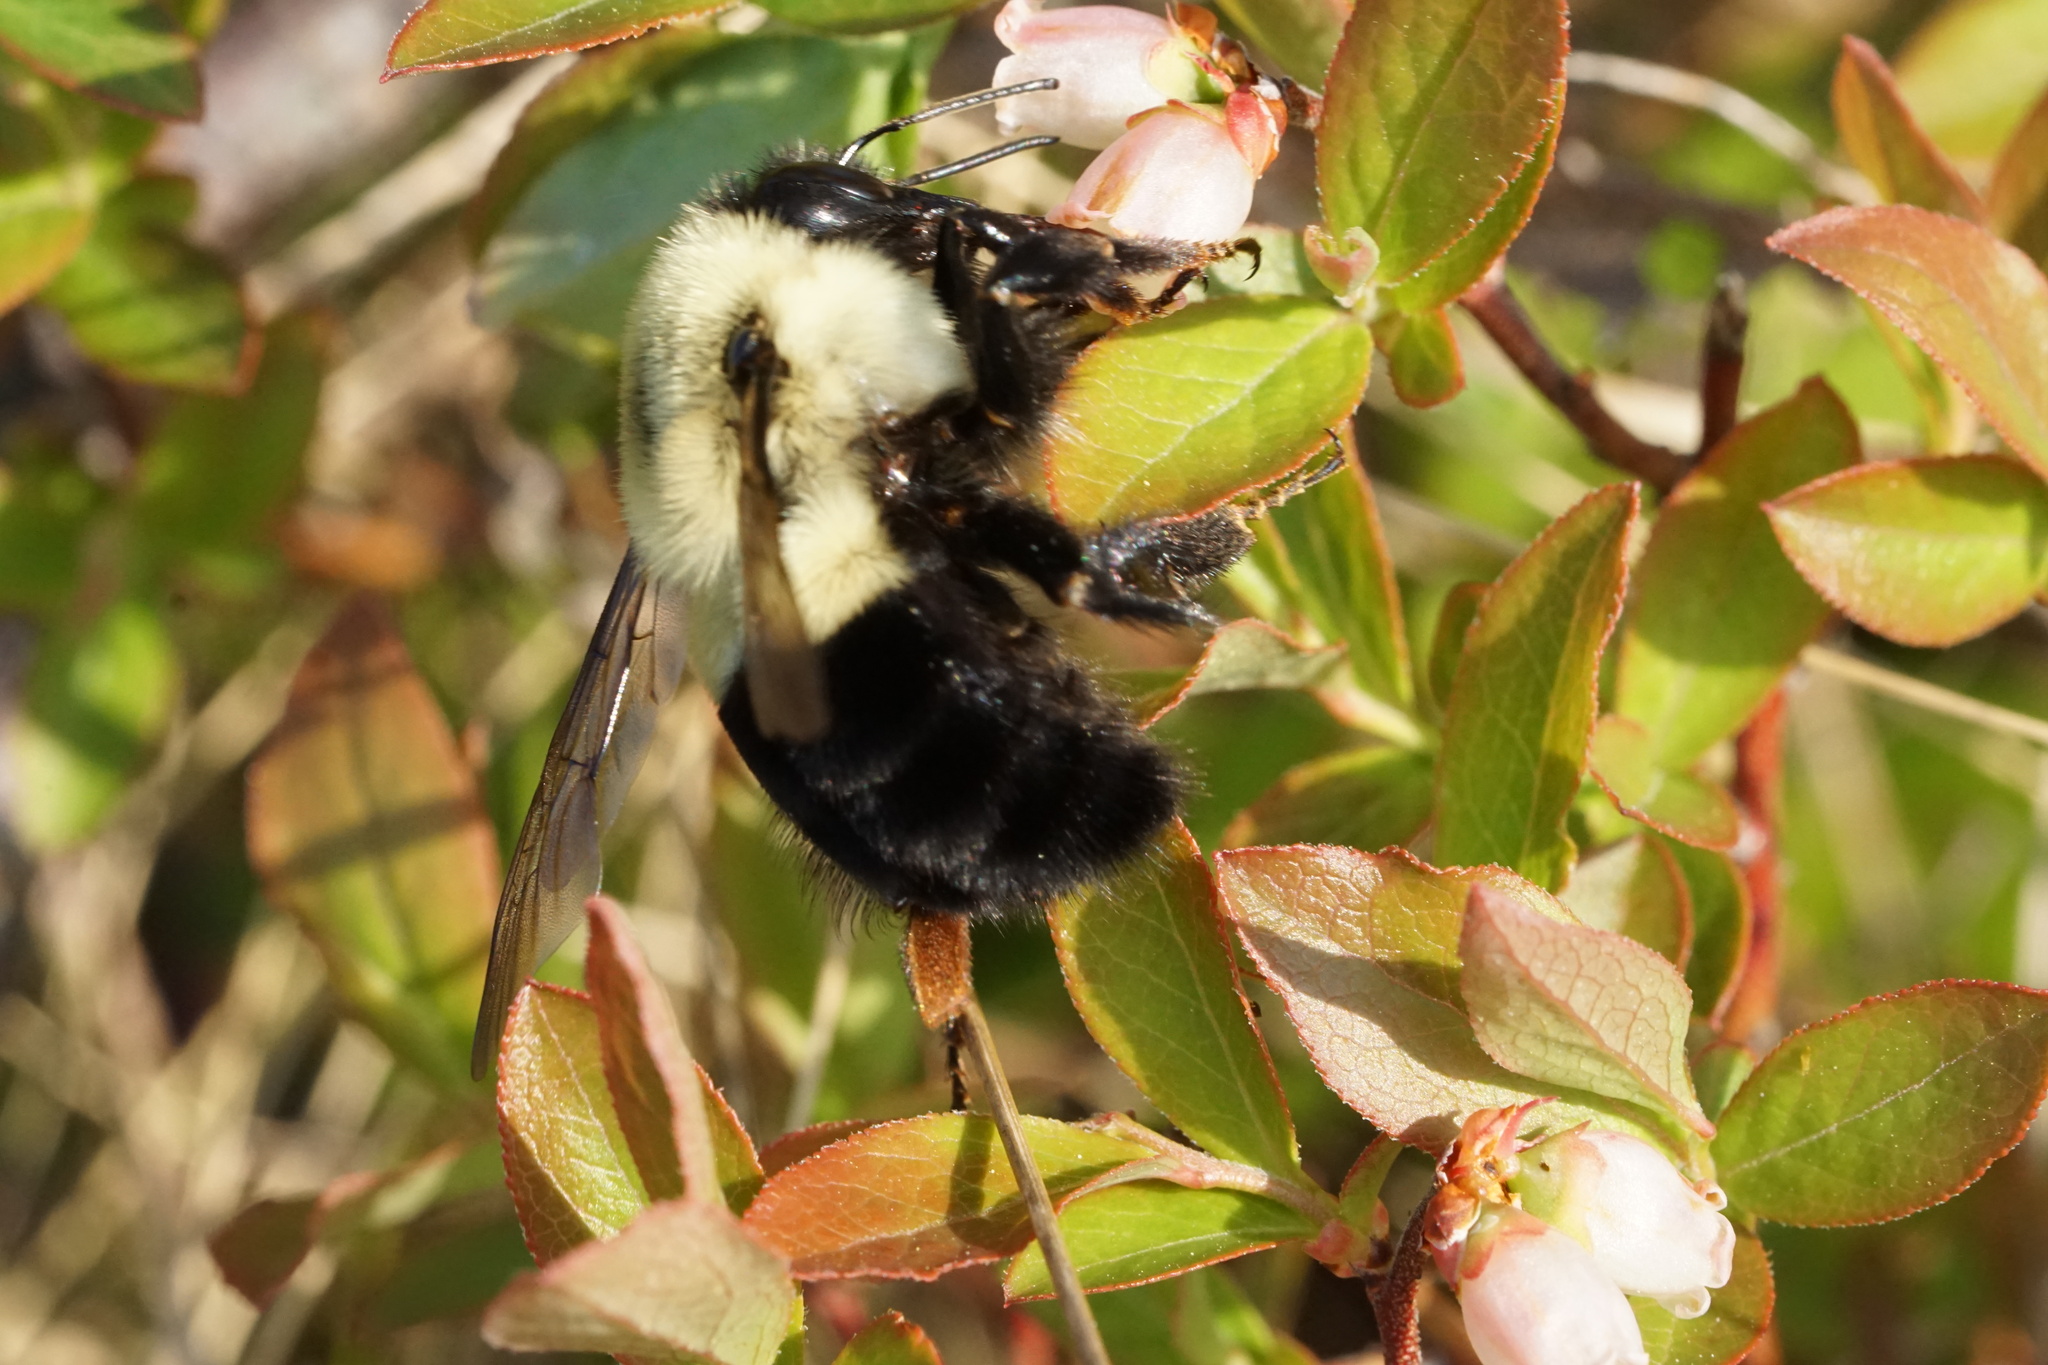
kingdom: Animalia
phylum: Arthropoda
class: Insecta
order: Hymenoptera
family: Apidae
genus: Bombus
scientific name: Bombus impatiens
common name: Common eastern bumble bee
